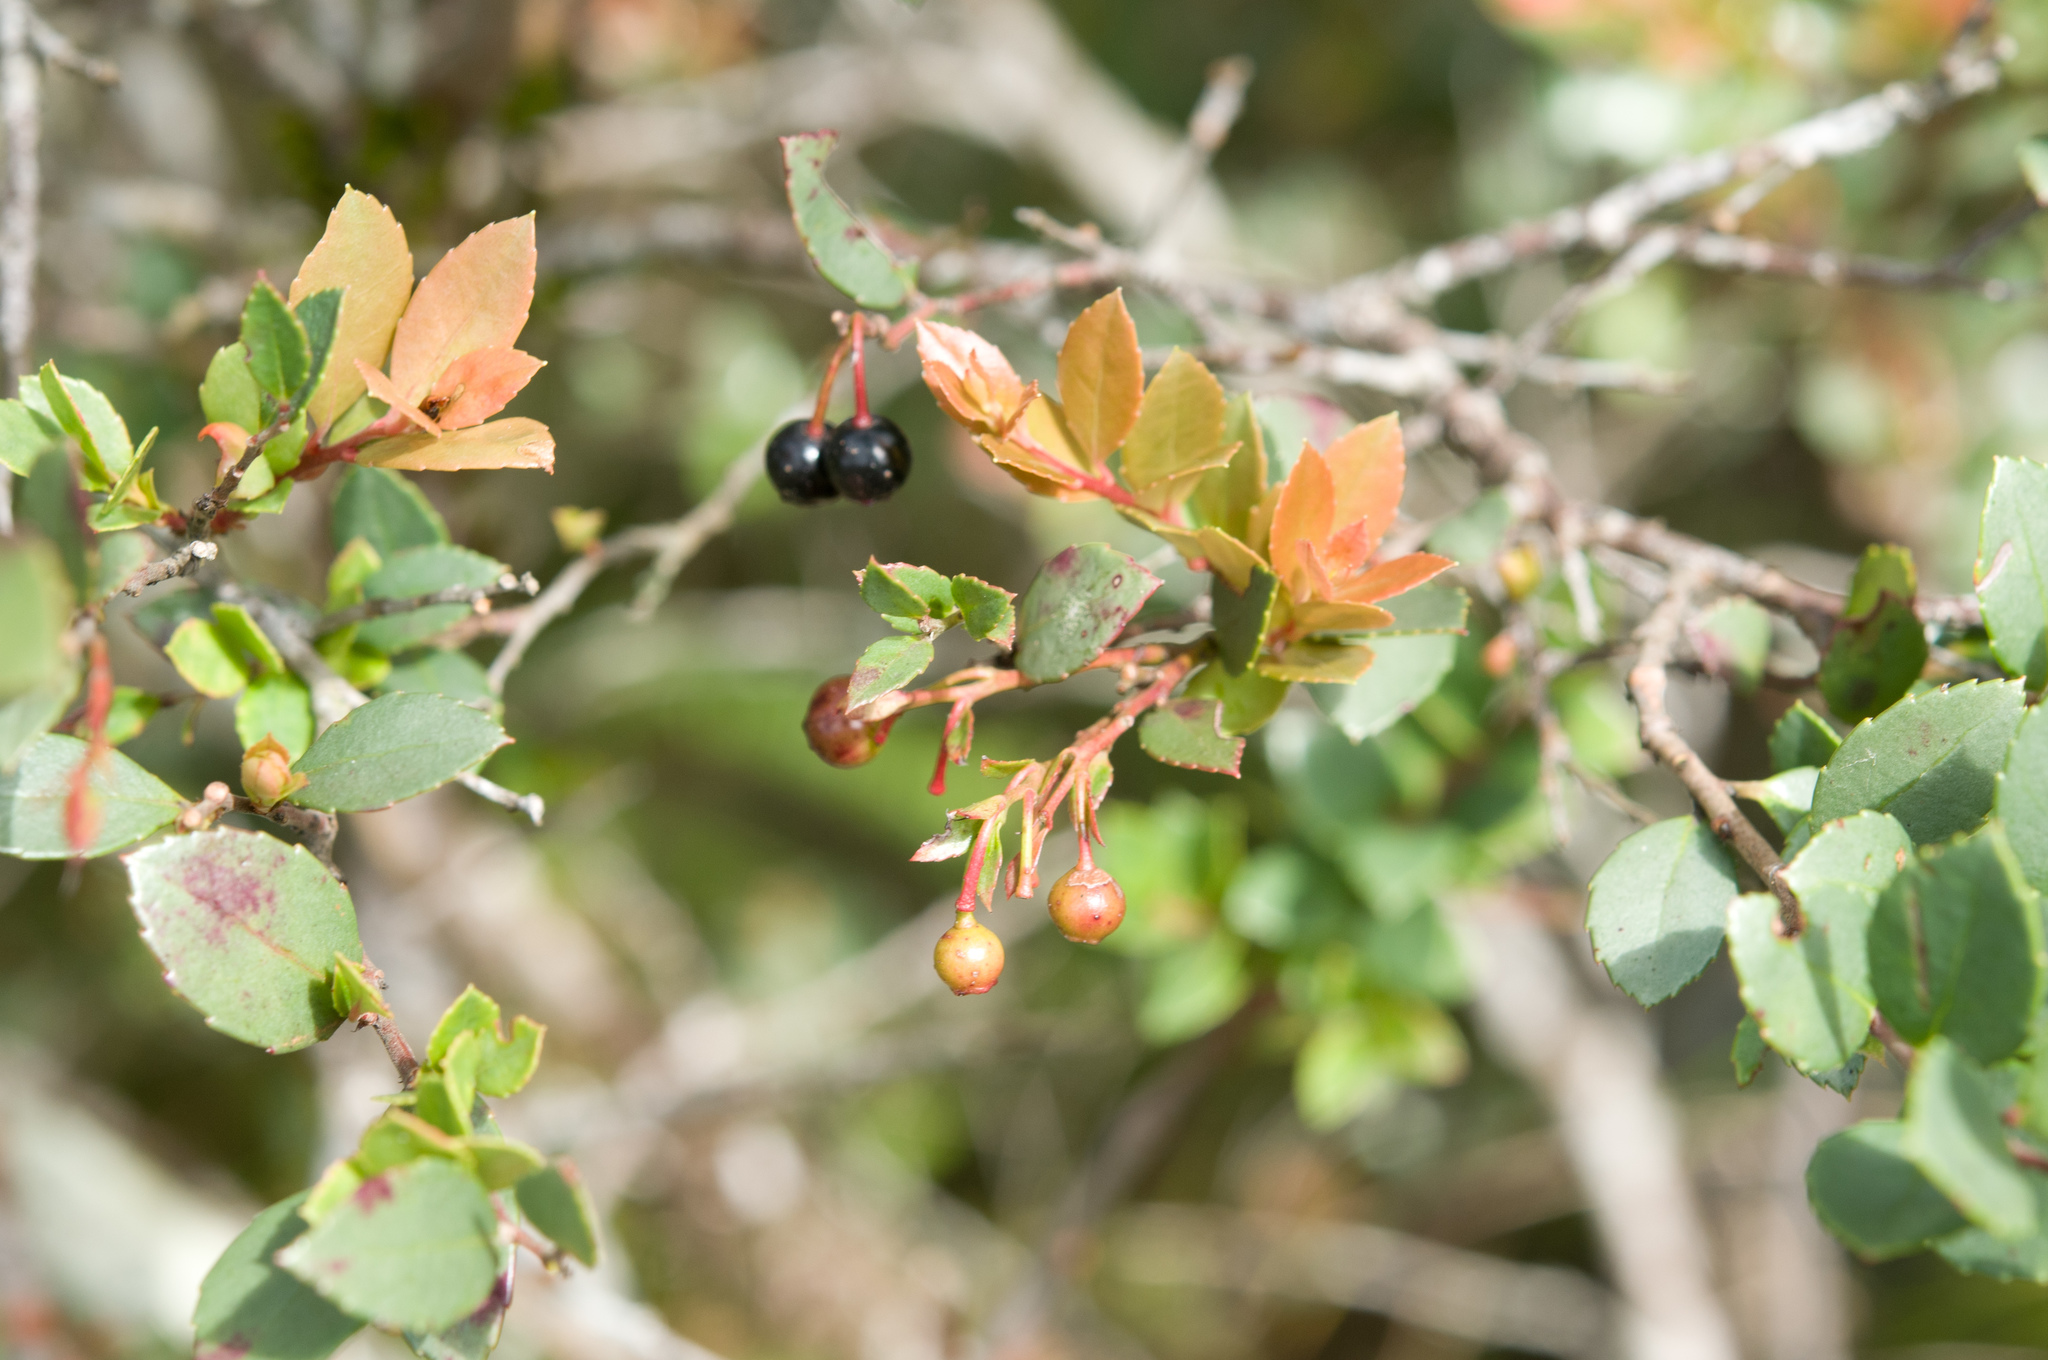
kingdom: Plantae
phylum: Tracheophyta
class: Magnoliopsida
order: Ericales
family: Ericaceae
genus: Vaccinium
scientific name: Vaccinium wrightii
